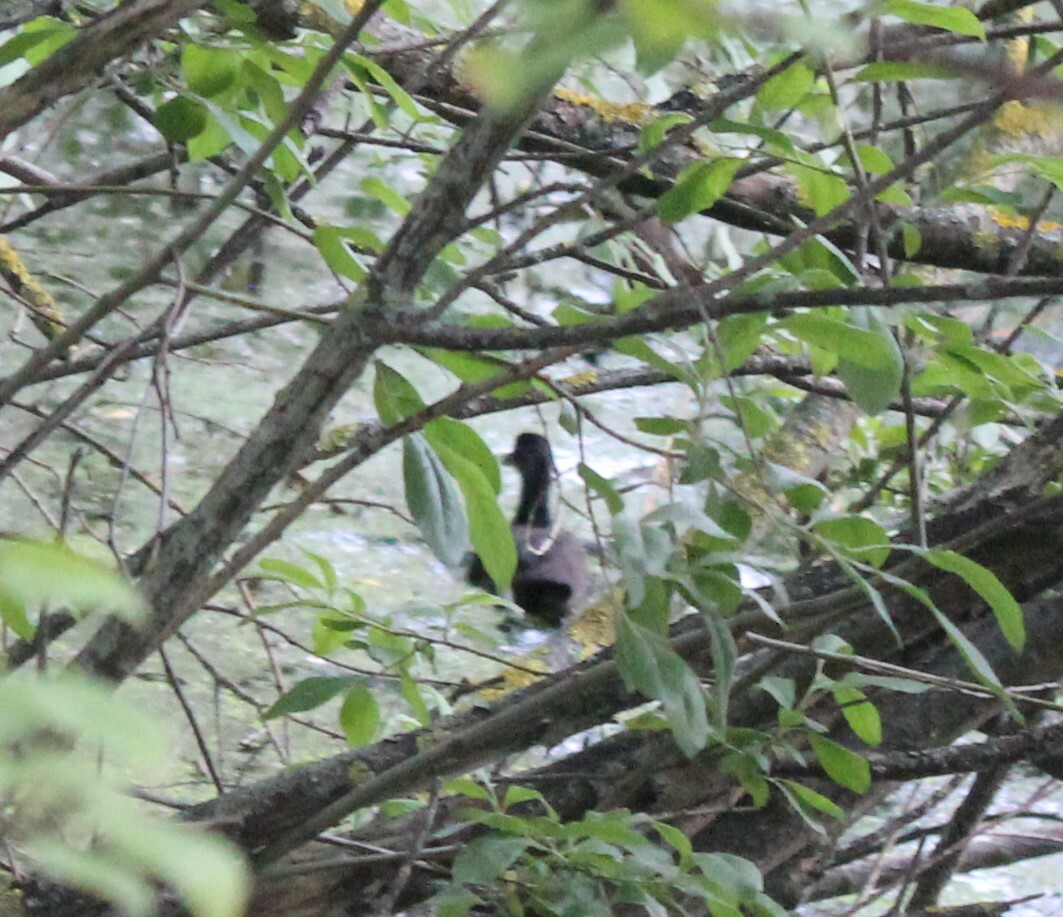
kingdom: Animalia
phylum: Chordata
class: Aves
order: Gruiformes
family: Rallidae
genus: Fulica
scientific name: Fulica atra
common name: Eurasian coot
